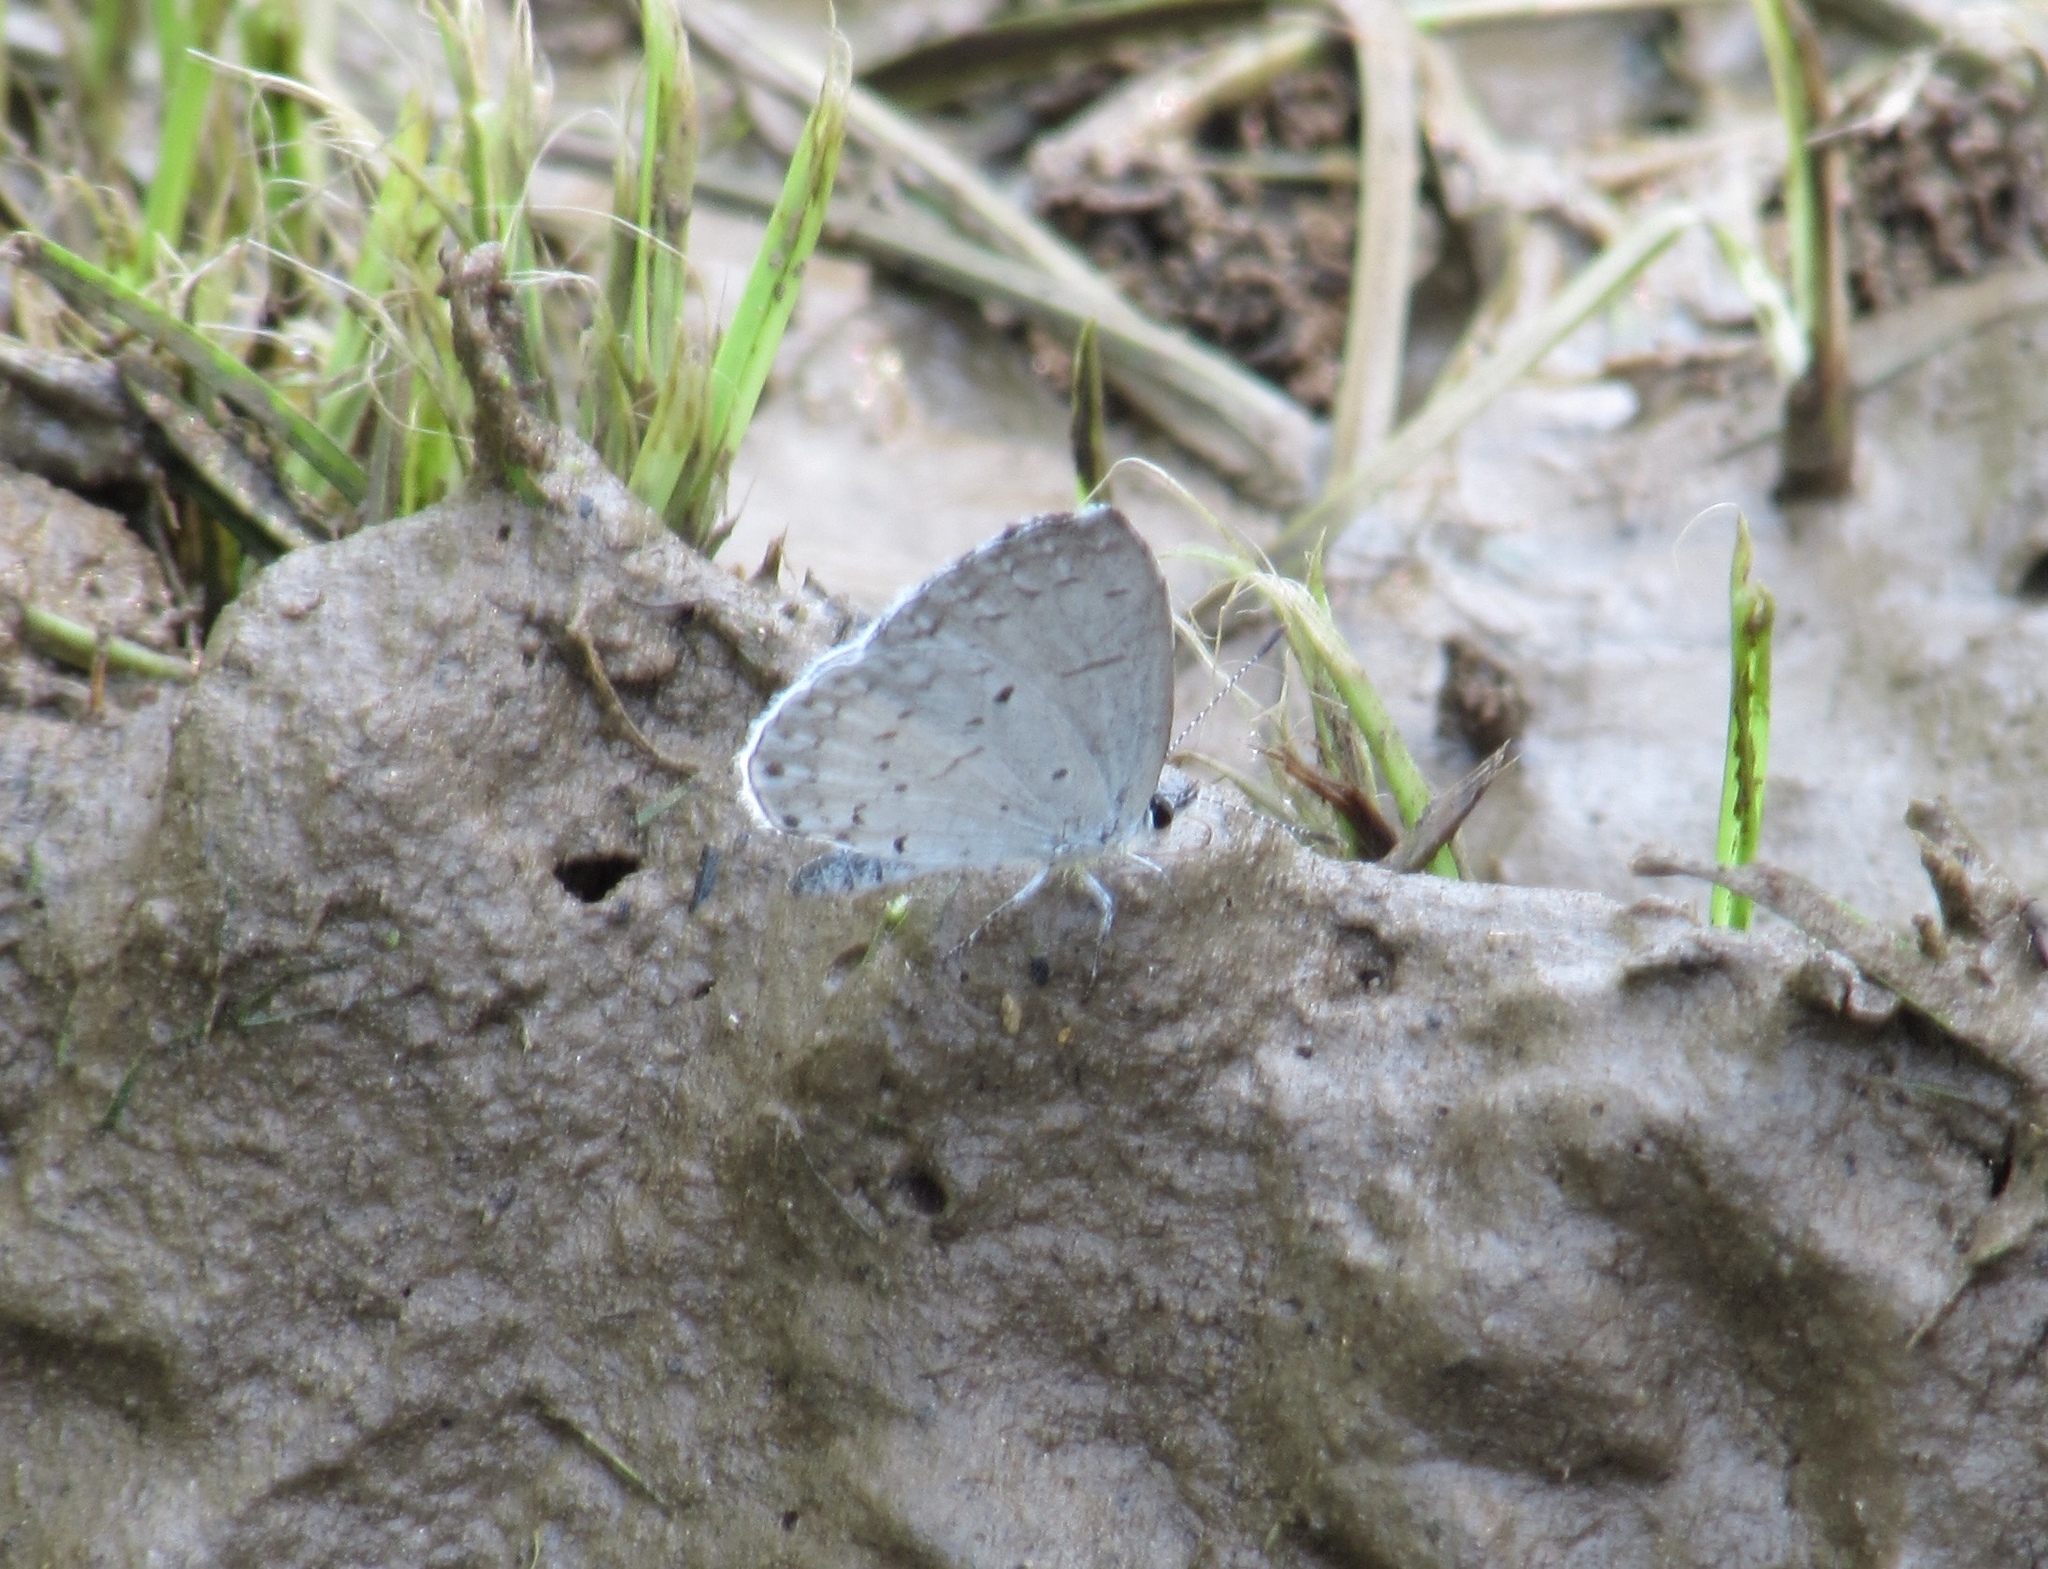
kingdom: Animalia
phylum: Arthropoda
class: Insecta
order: Lepidoptera
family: Lycaenidae
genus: Cyaniris
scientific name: Cyaniris neglecta
